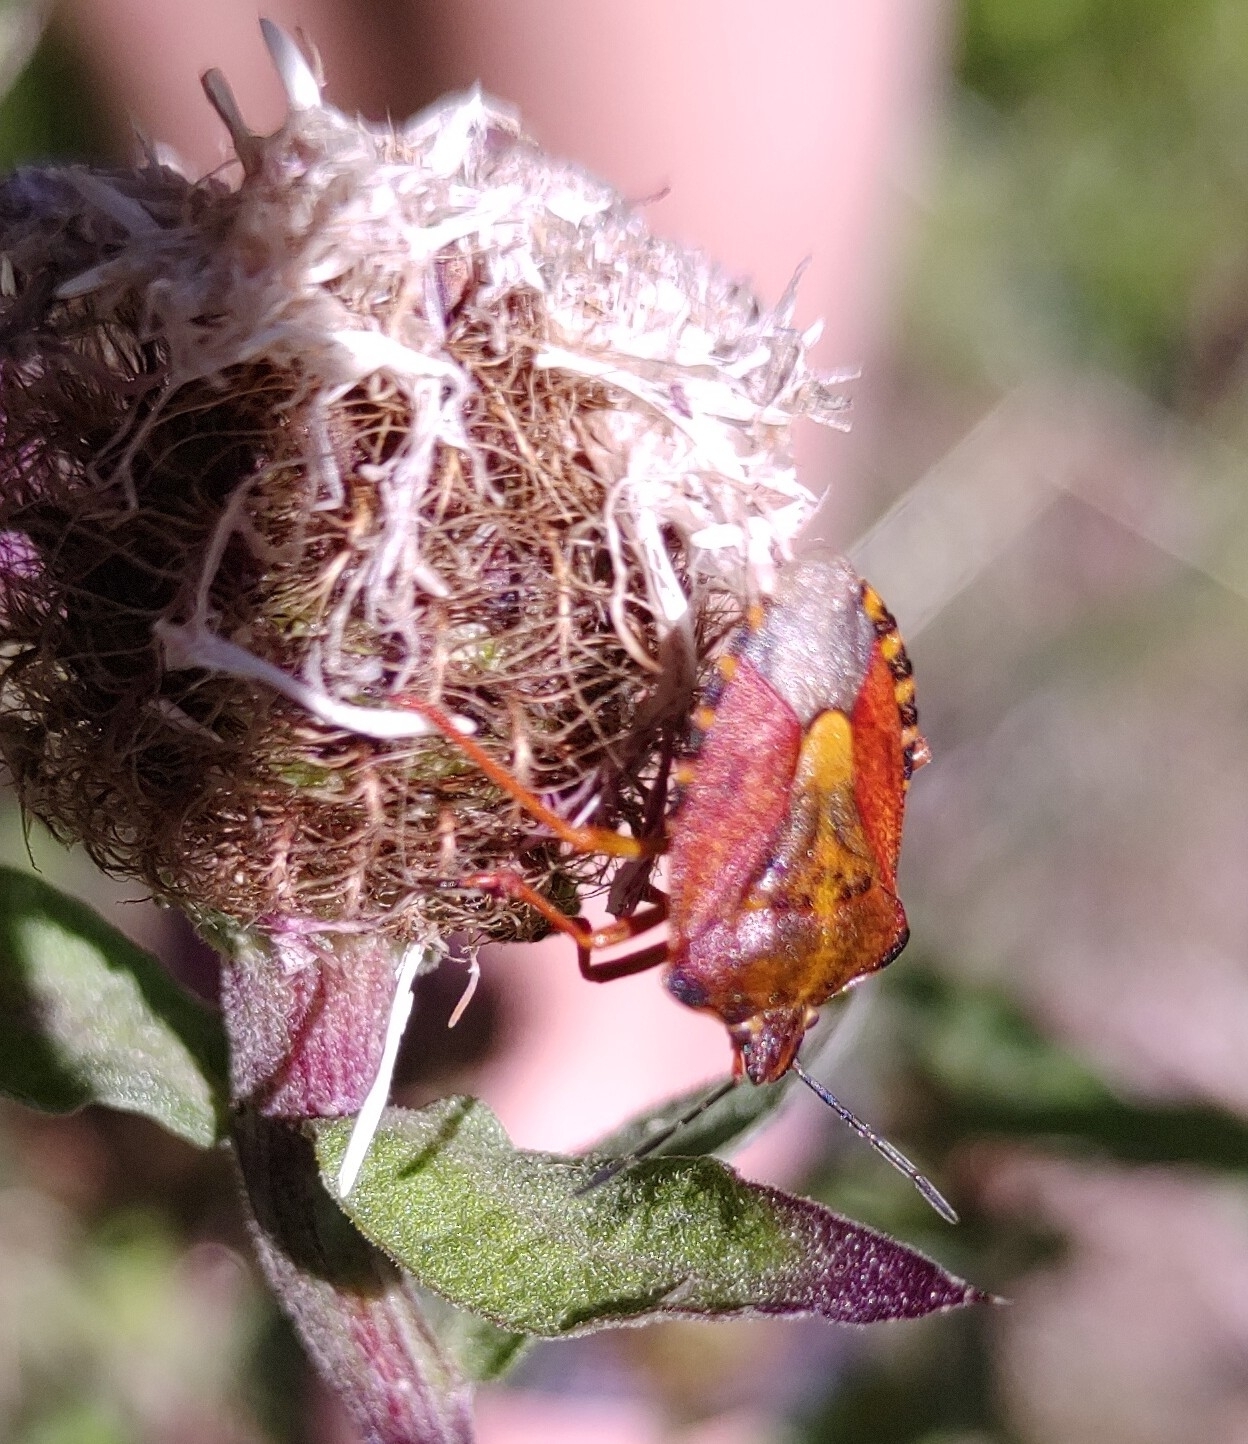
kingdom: Animalia
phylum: Arthropoda
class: Insecta
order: Hemiptera
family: Pentatomidae
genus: Carpocoris
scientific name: Carpocoris purpureipennis
